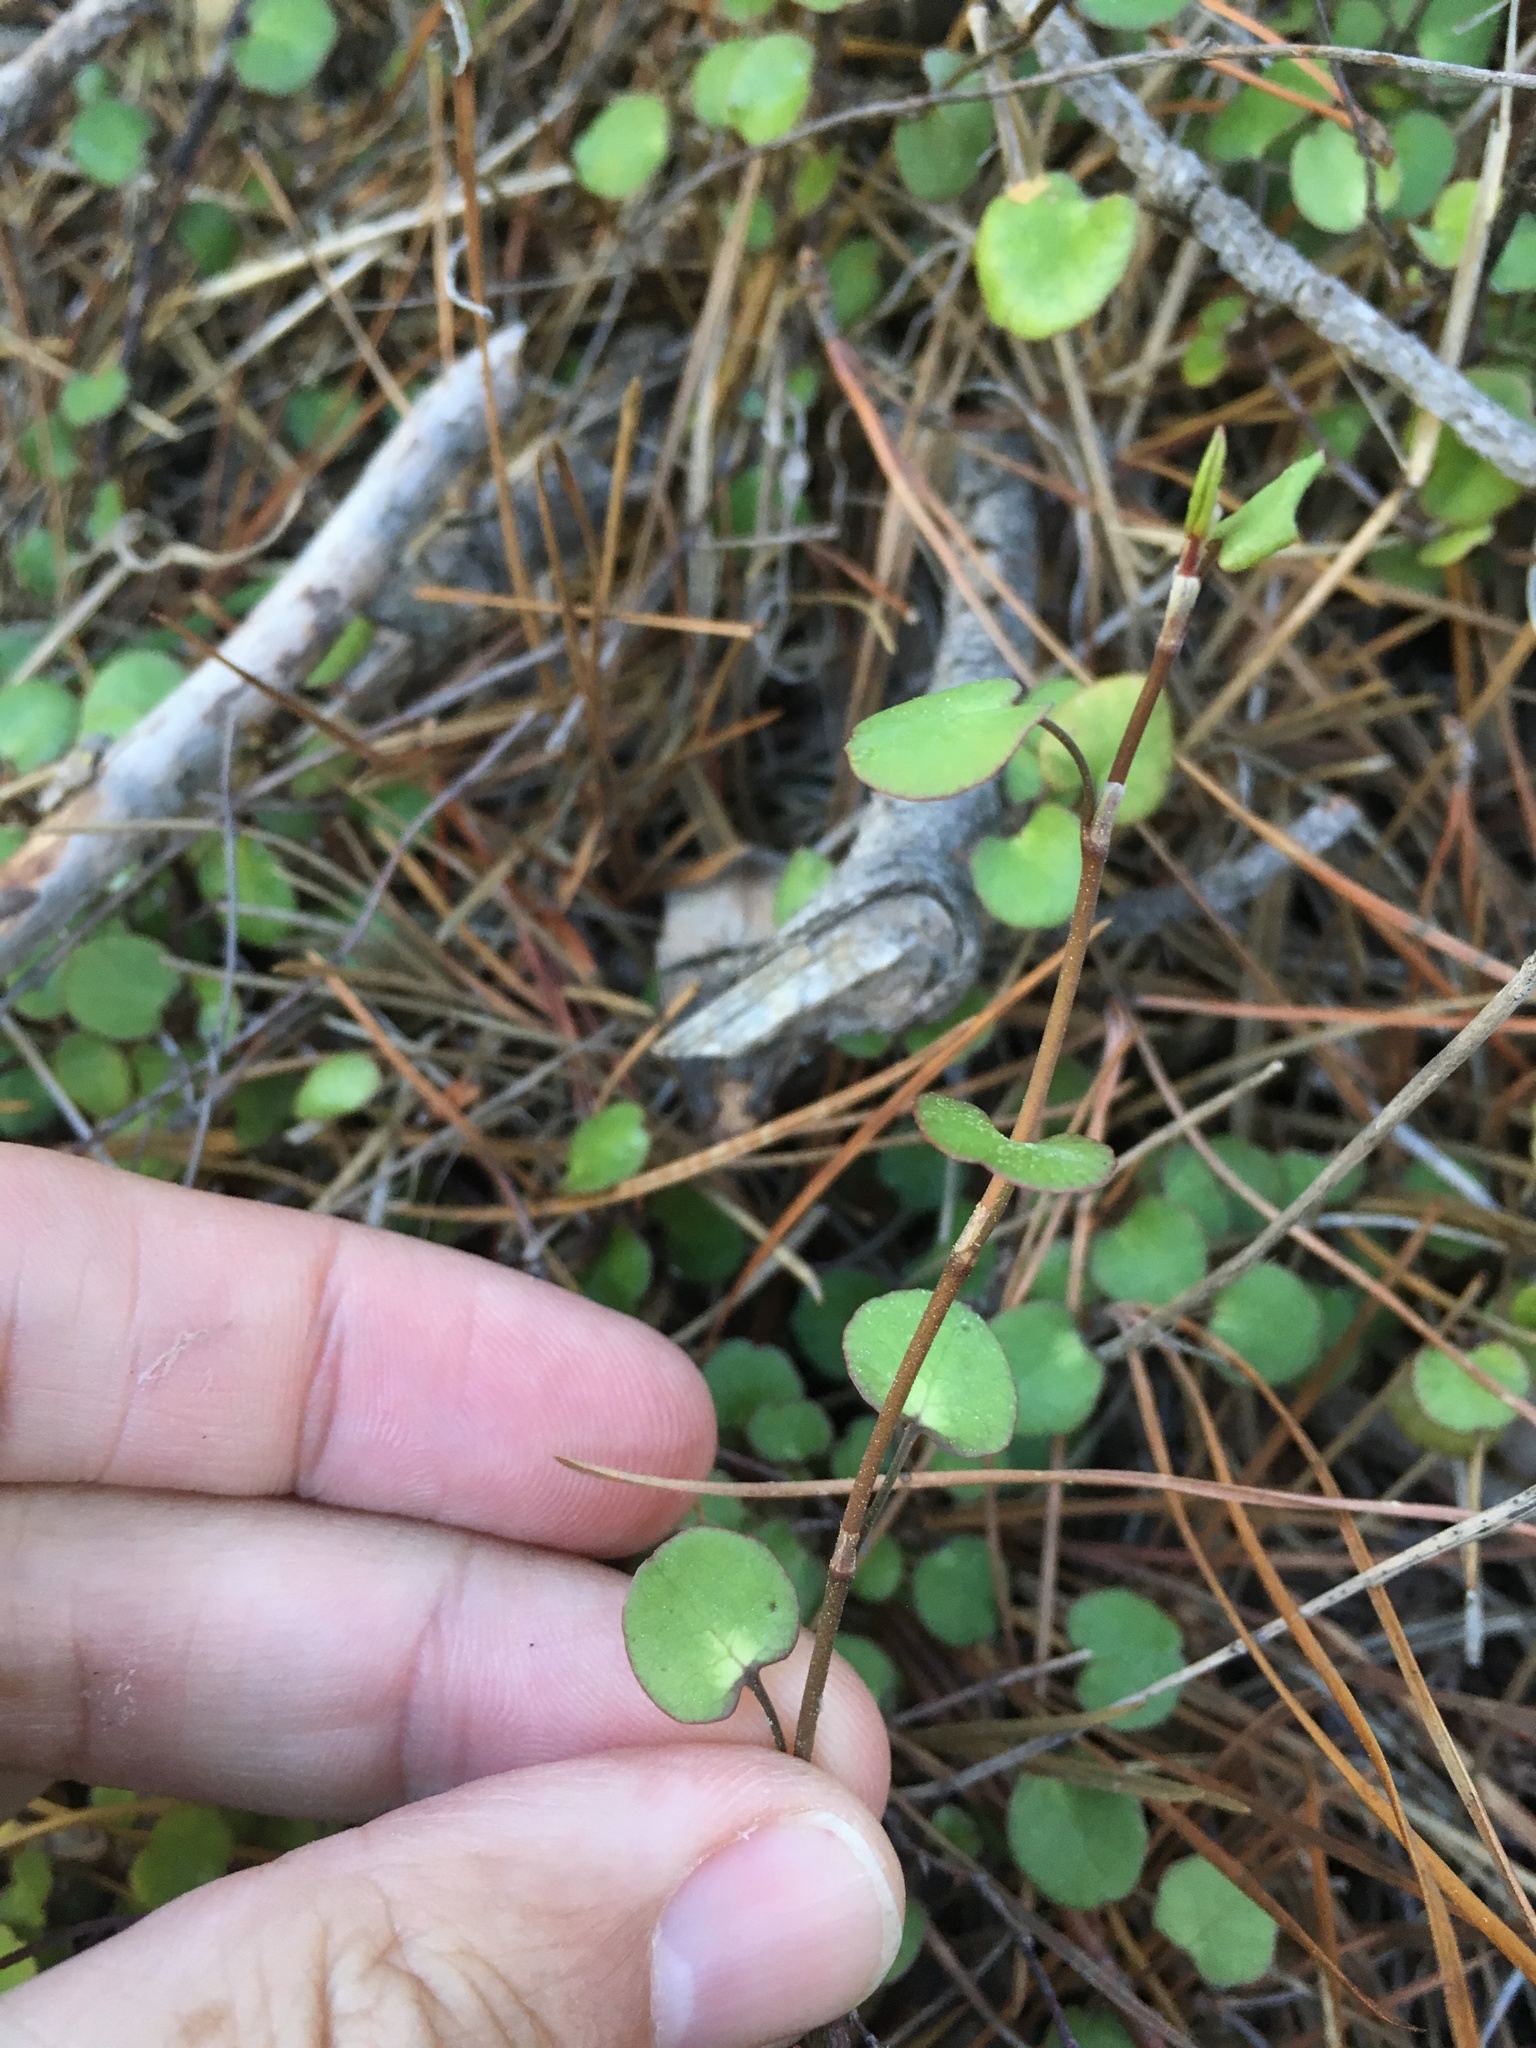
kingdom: Plantae
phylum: Tracheophyta
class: Magnoliopsida
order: Caryophyllales
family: Polygonaceae
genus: Muehlenbeckia
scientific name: Muehlenbeckia complexa
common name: Wireplant
